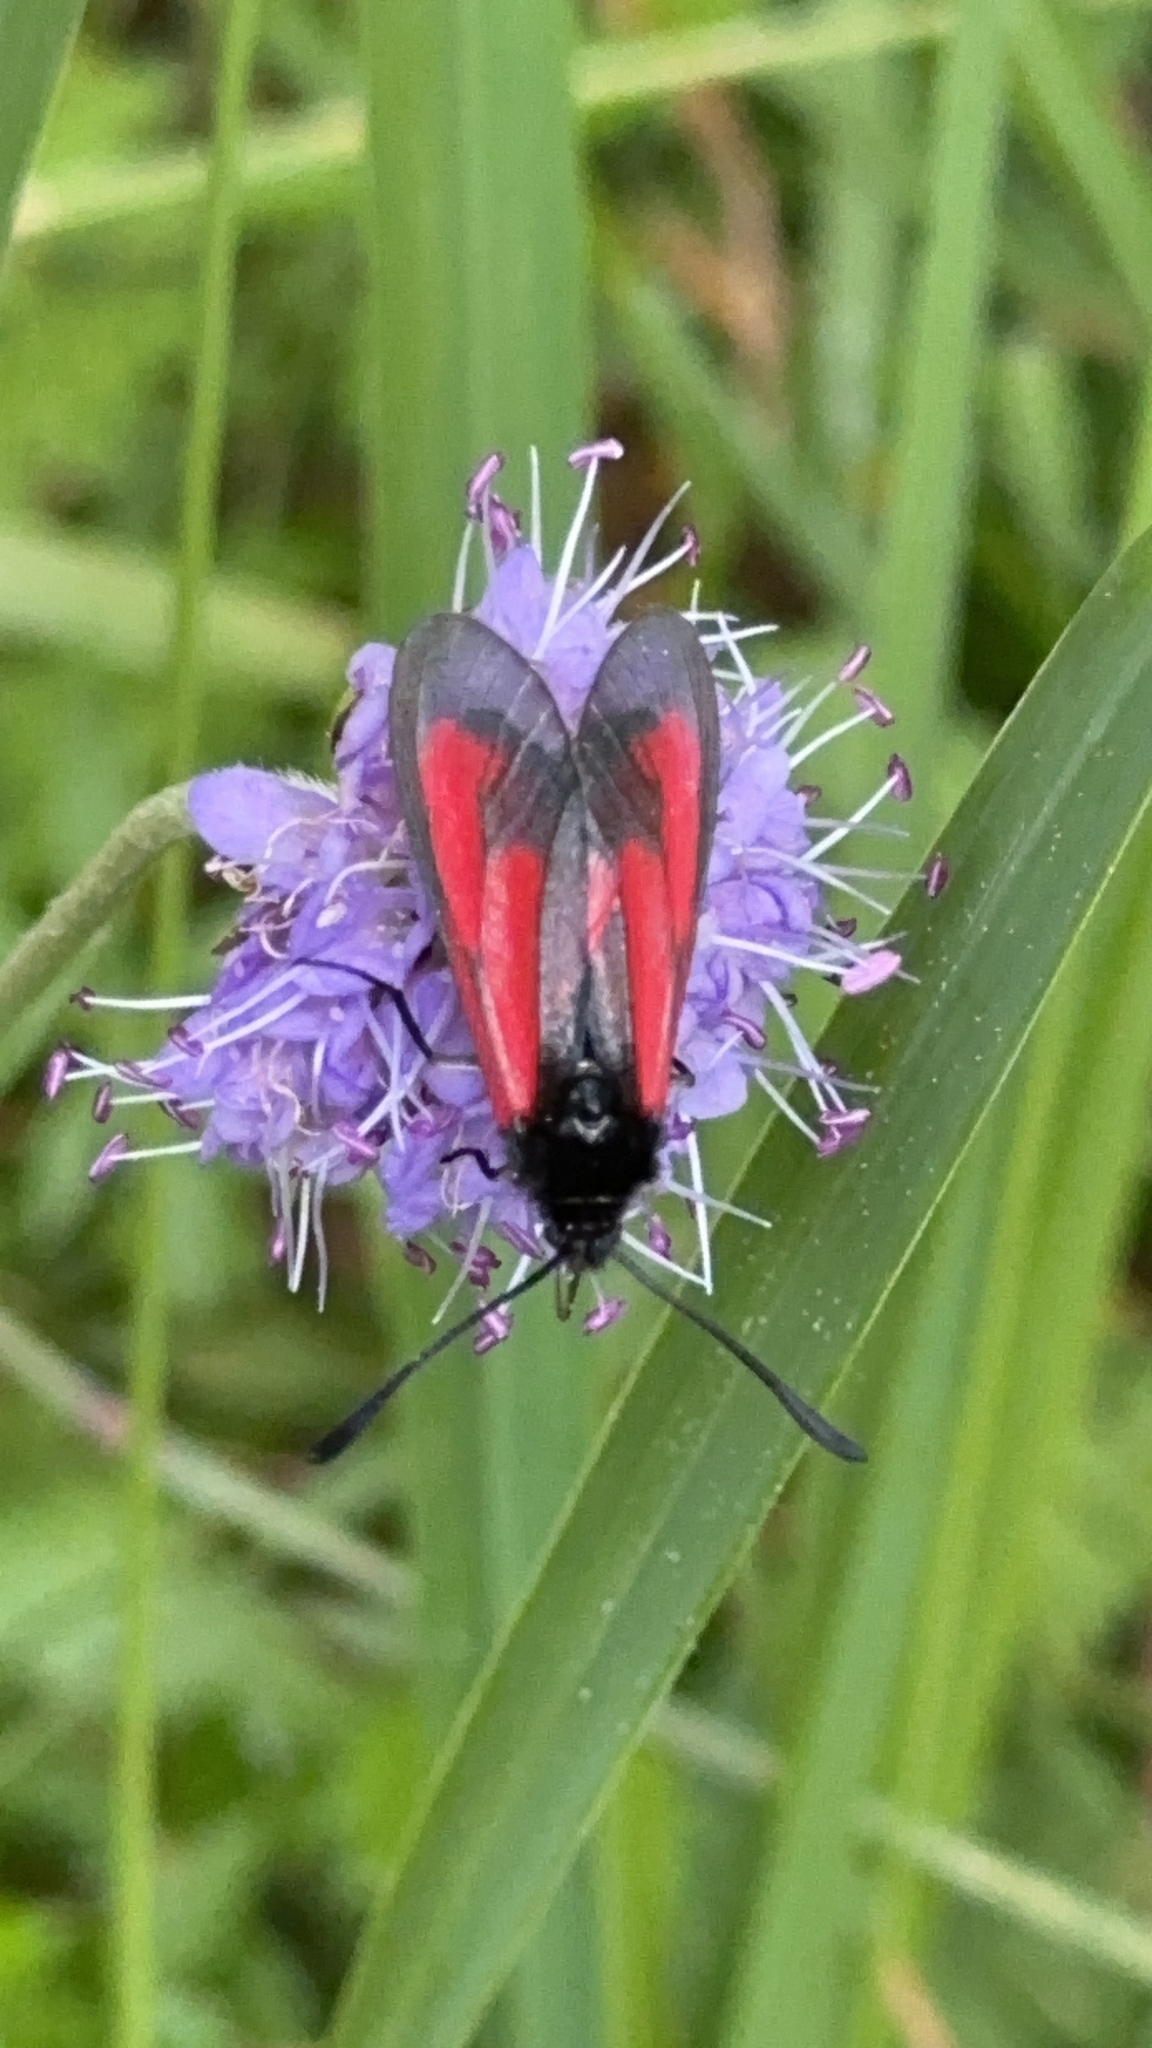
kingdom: Animalia
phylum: Arthropoda
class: Insecta
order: Lepidoptera
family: Zygaenidae
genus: Zygaena
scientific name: Zygaena purpuralis
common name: Transparent burnet
